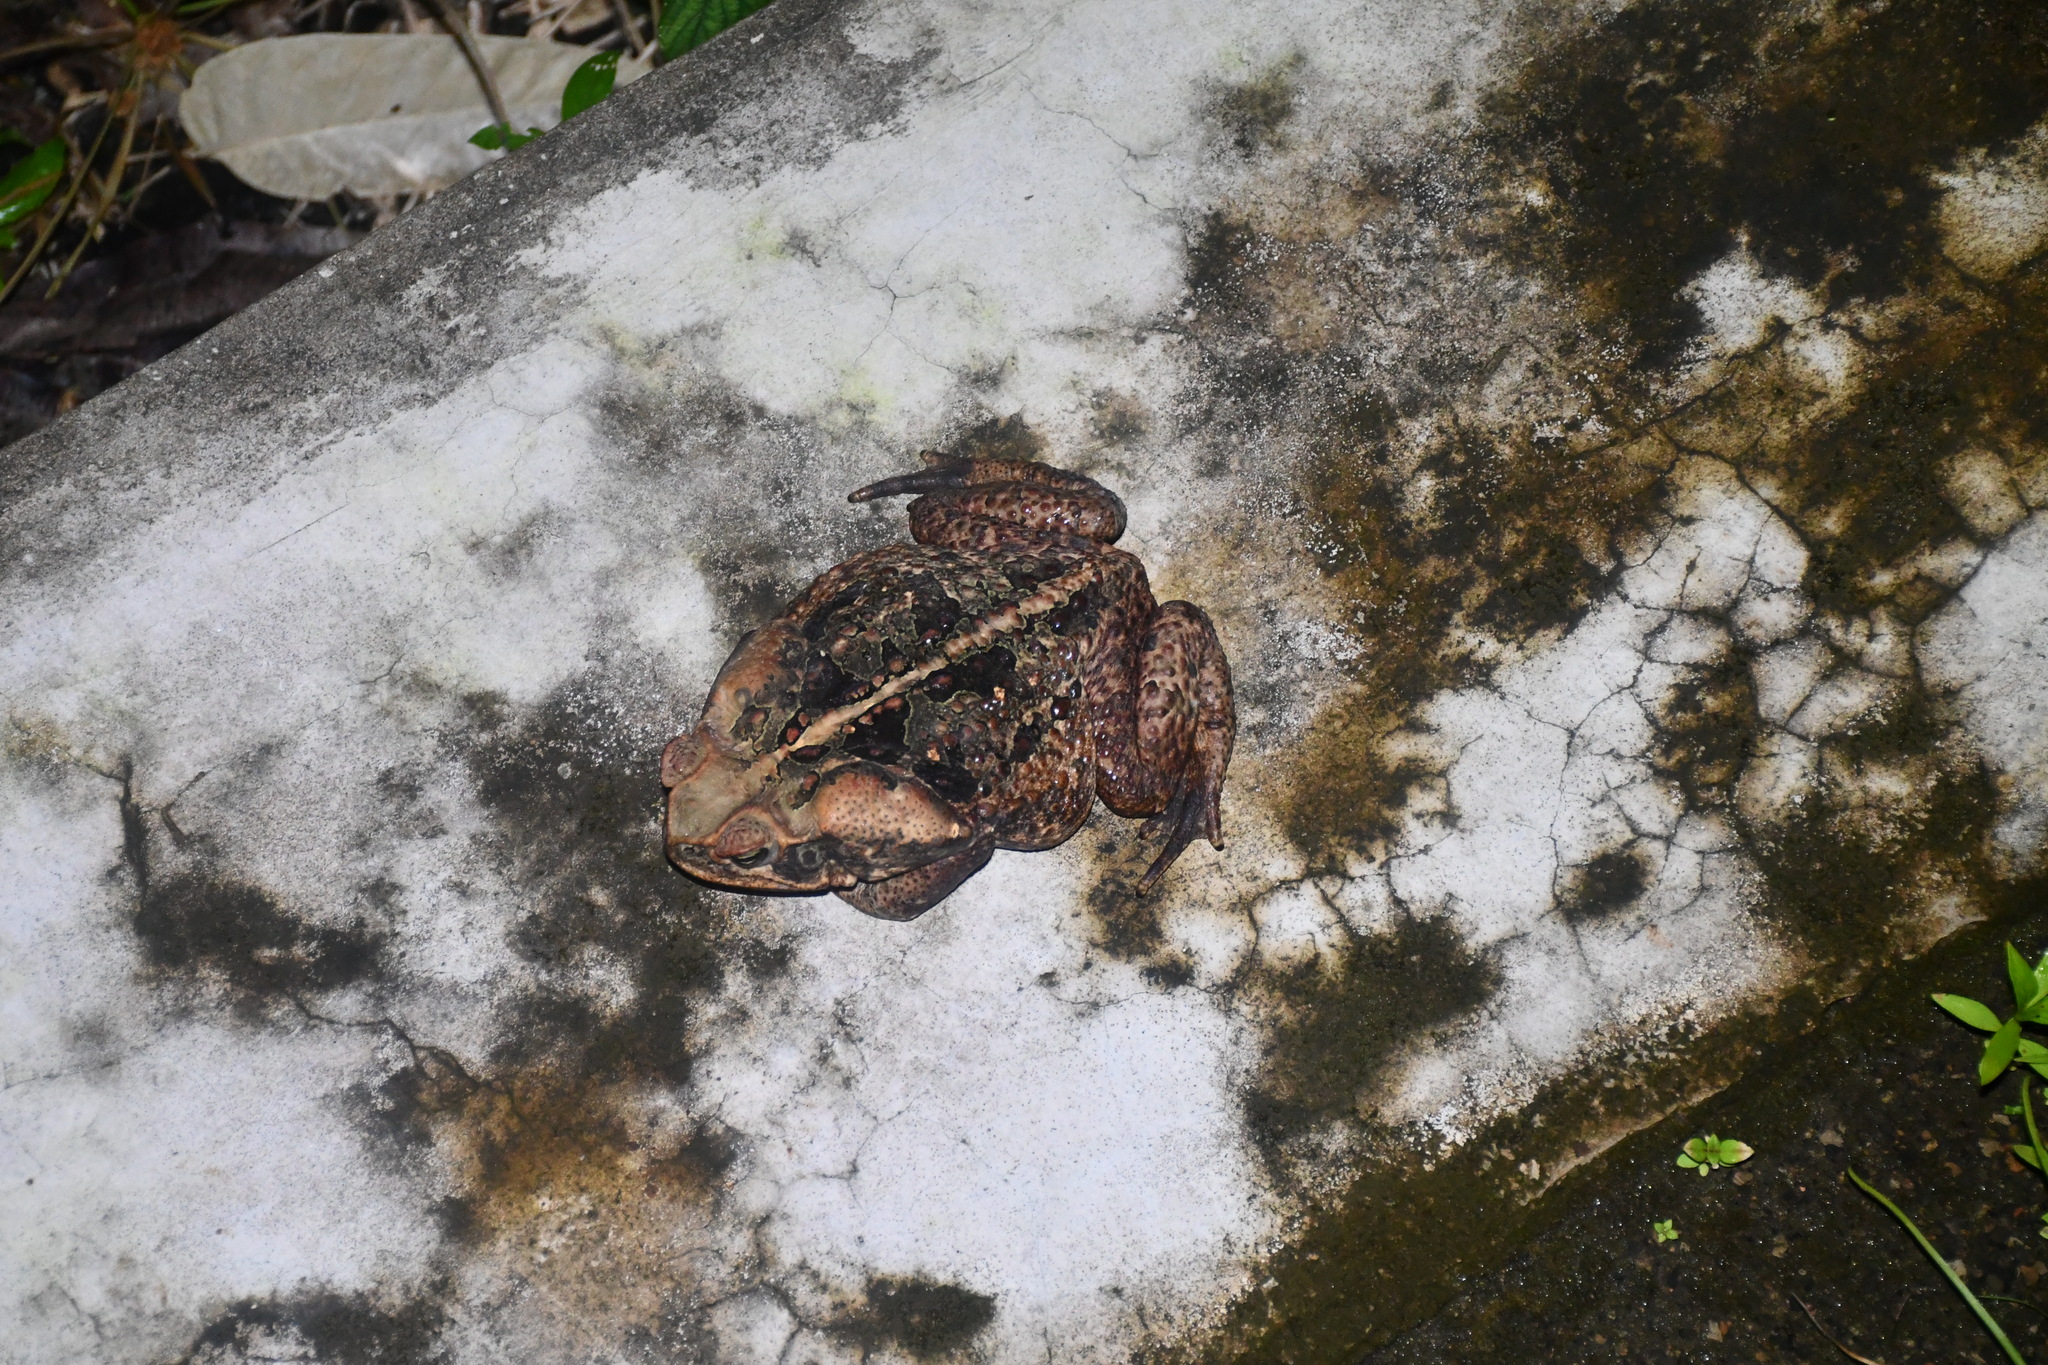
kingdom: Animalia
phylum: Chordata
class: Amphibia
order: Anura
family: Bufonidae
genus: Rhinella
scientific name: Rhinella marina
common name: Cane toad
